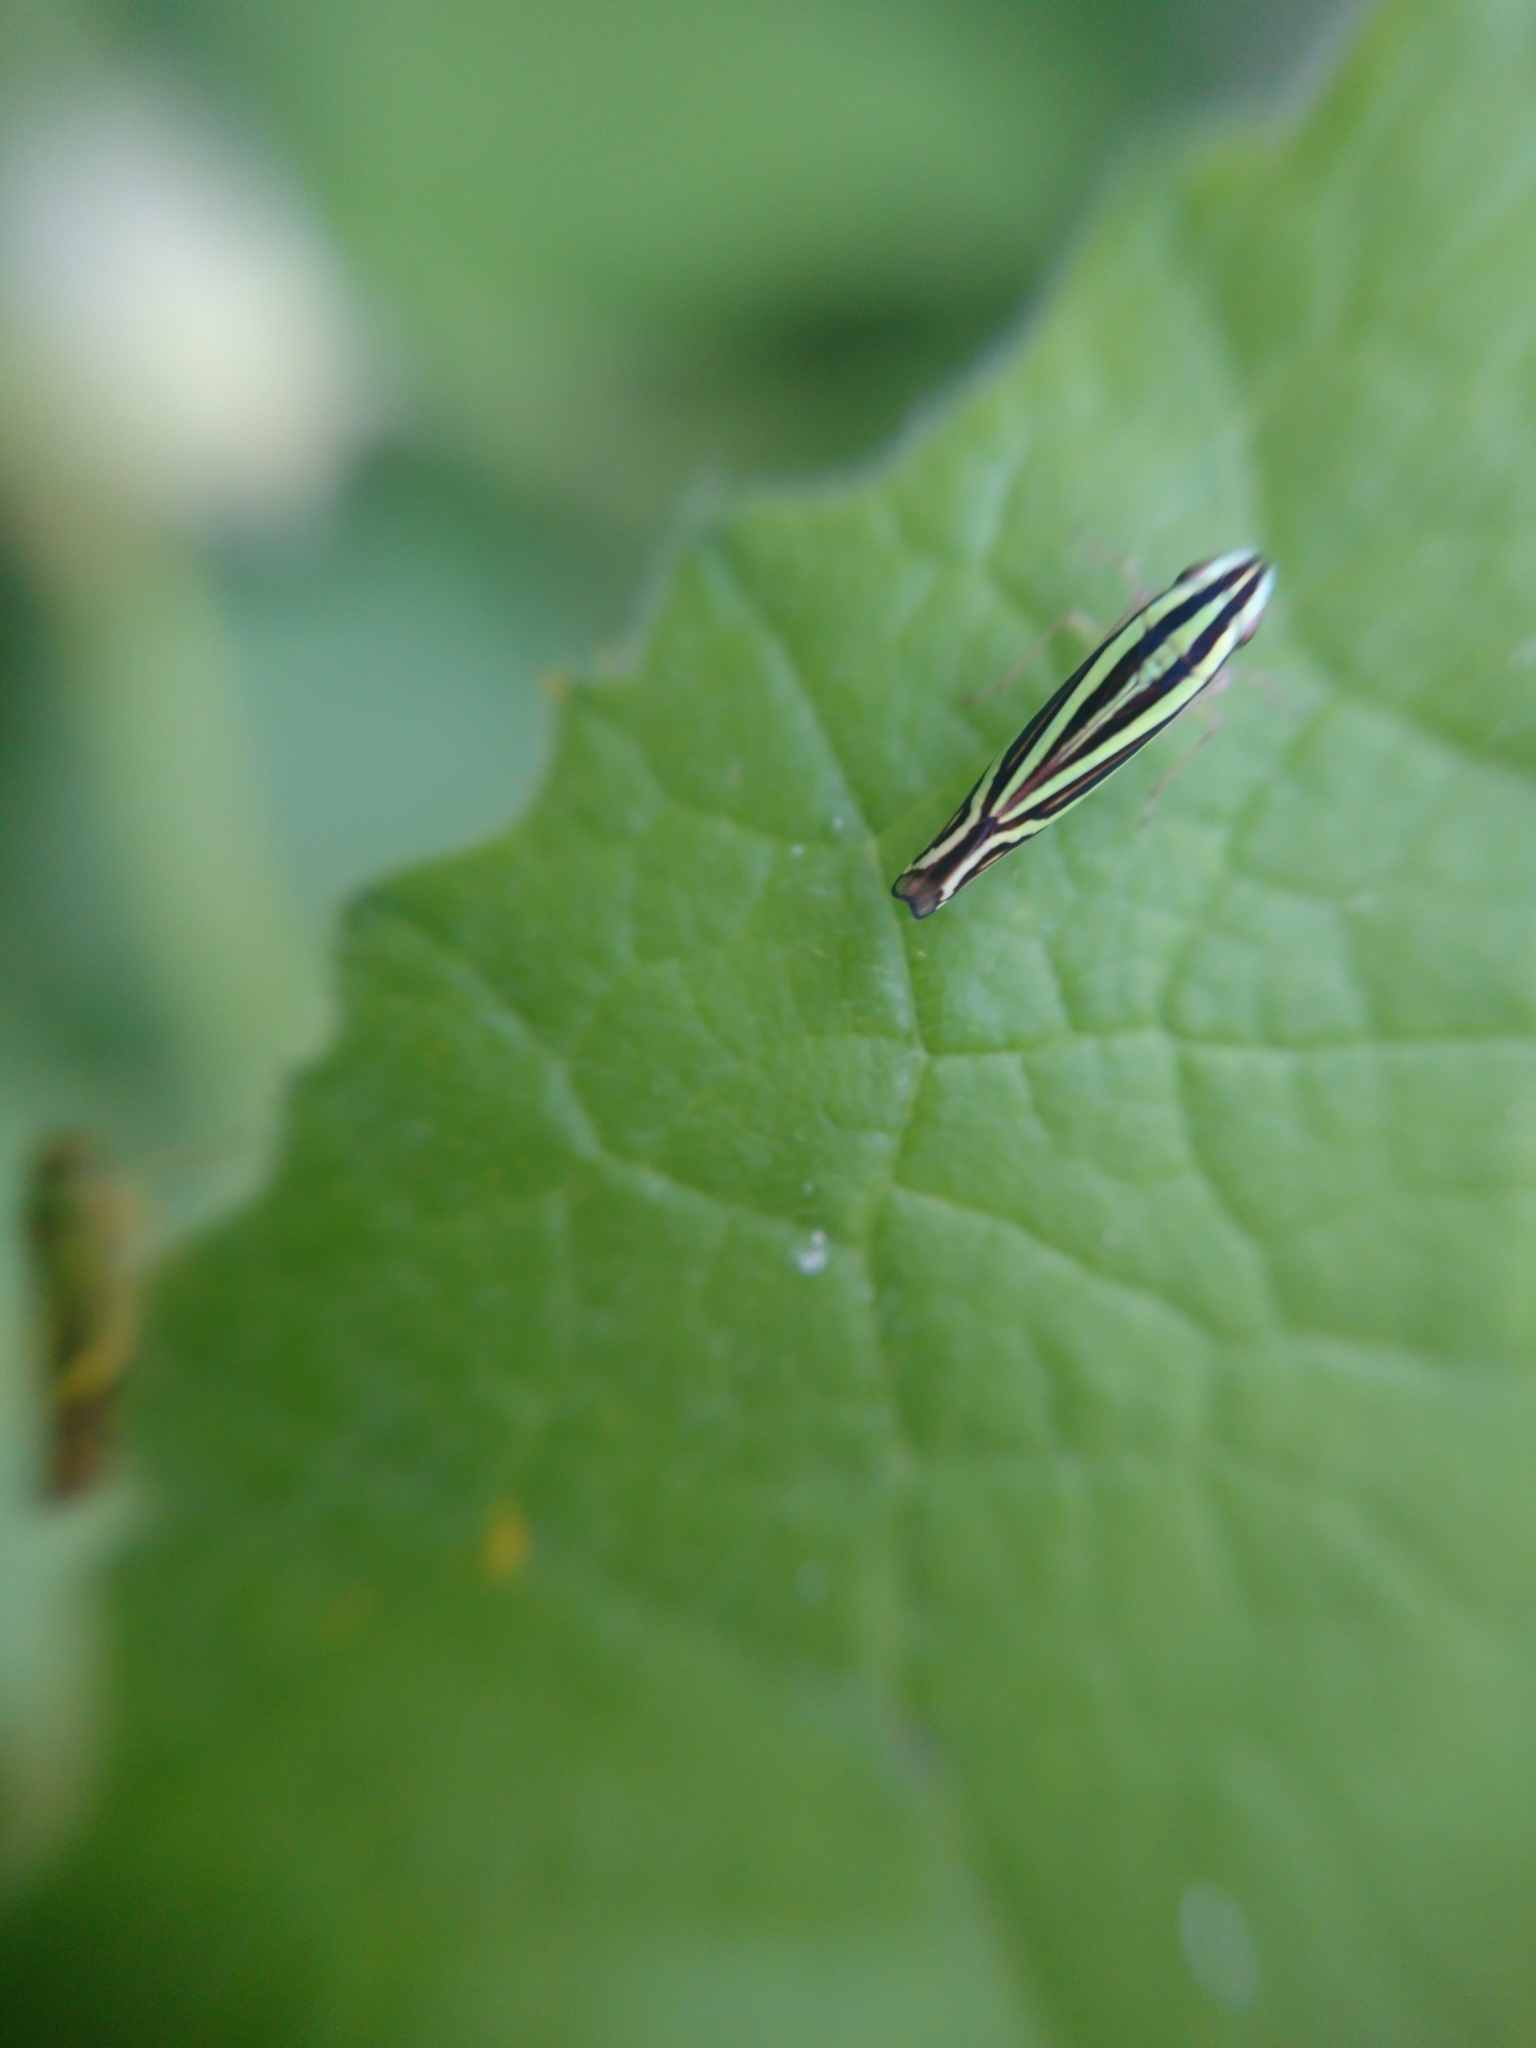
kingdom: Animalia
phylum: Arthropoda
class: Insecta
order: Hemiptera
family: Cicadellidae
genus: Sibovia
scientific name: Sibovia sagata
